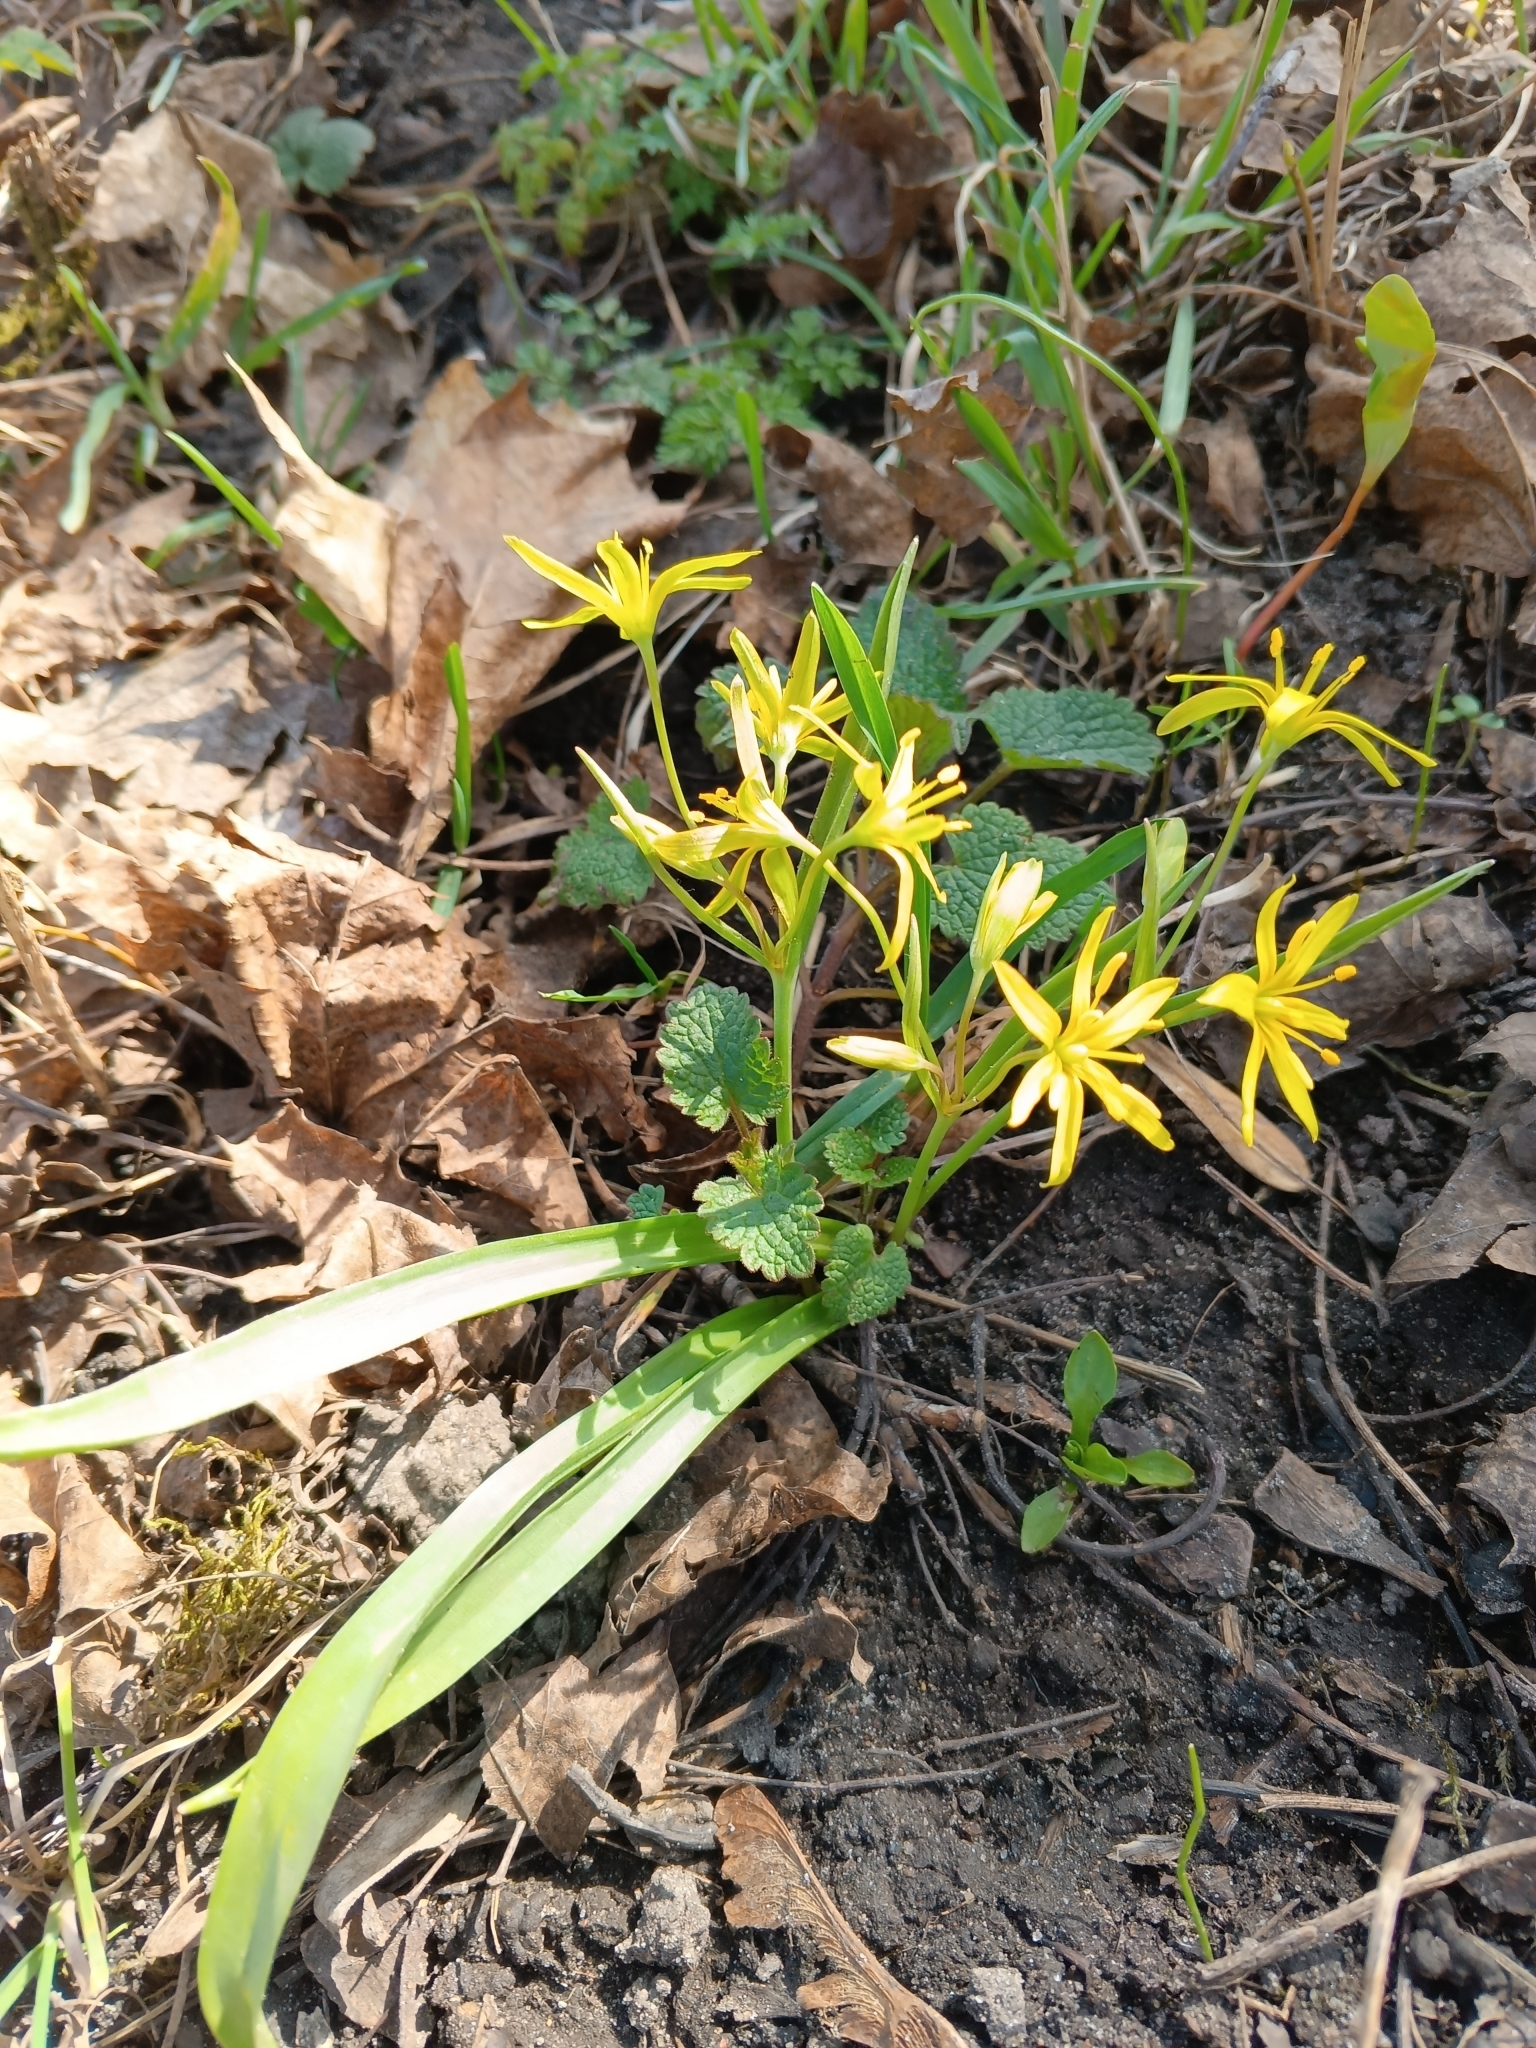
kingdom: Plantae
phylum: Tracheophyta
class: Liliopsida
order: Liliales
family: Liliaceae
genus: Gagea
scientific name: Gagea lutea
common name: Yellow star-of-bethlehem
